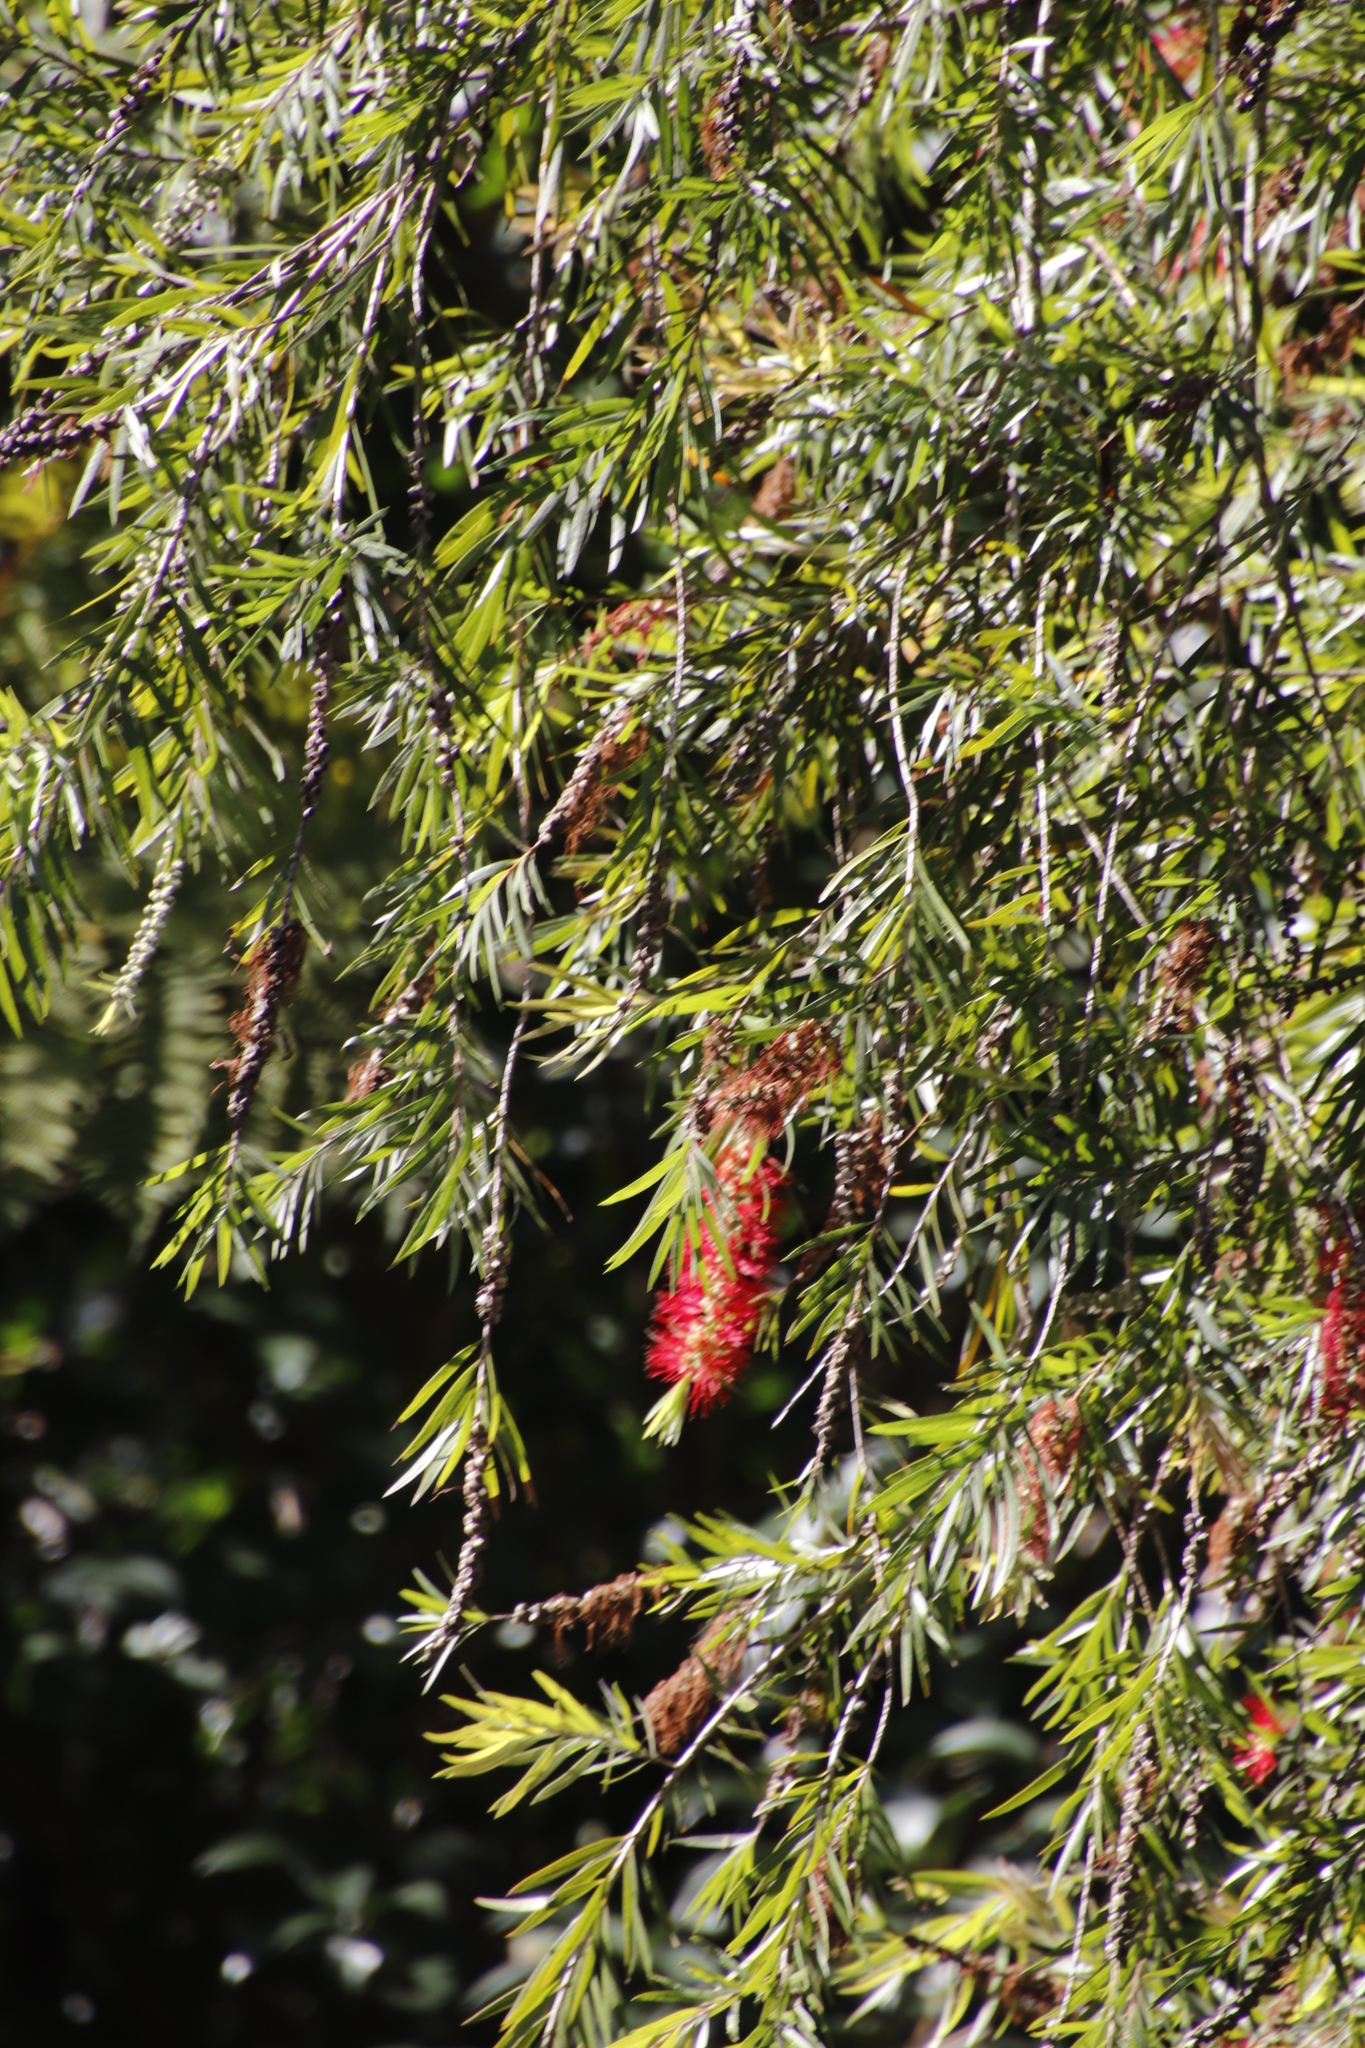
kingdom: Plantae
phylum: Tracheophyta
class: Magnoliopsida
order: Myrtales
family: Myrtaceae
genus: Callistemon
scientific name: Callistemon viminalis
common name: Drooping bottlebrush
